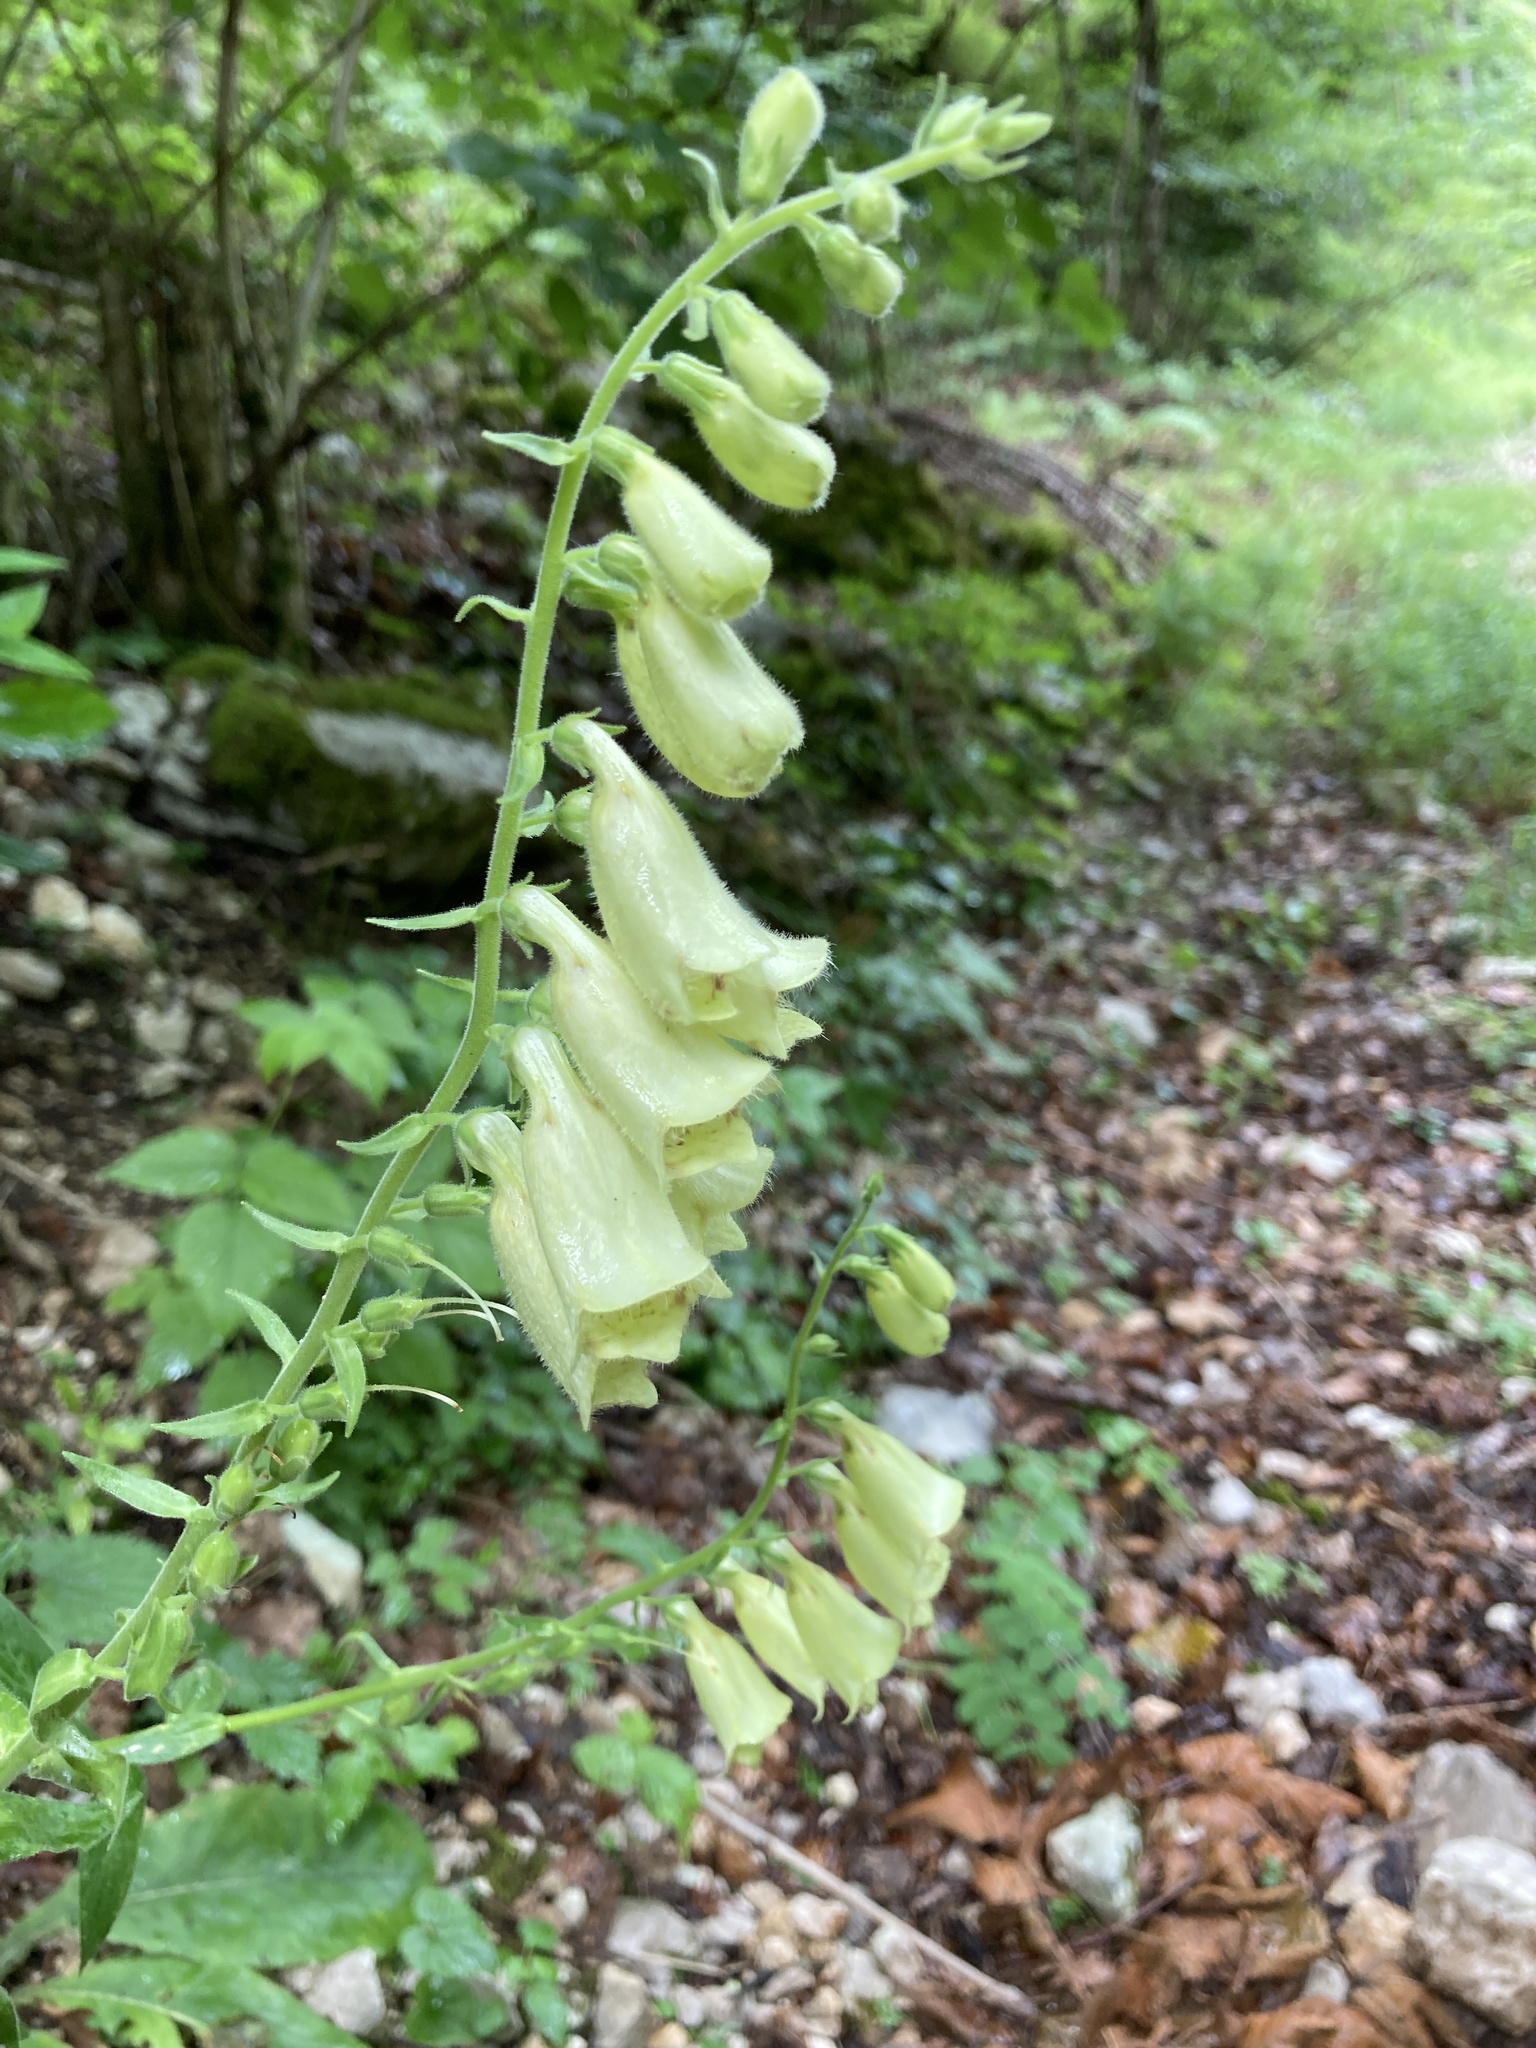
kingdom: Plantae
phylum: Tracheophyta
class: Magnoliopsida
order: Lamiales
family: Plantaginaceae
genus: Digitalis
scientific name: Digitalis grandiflora
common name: Yellow foxglove
